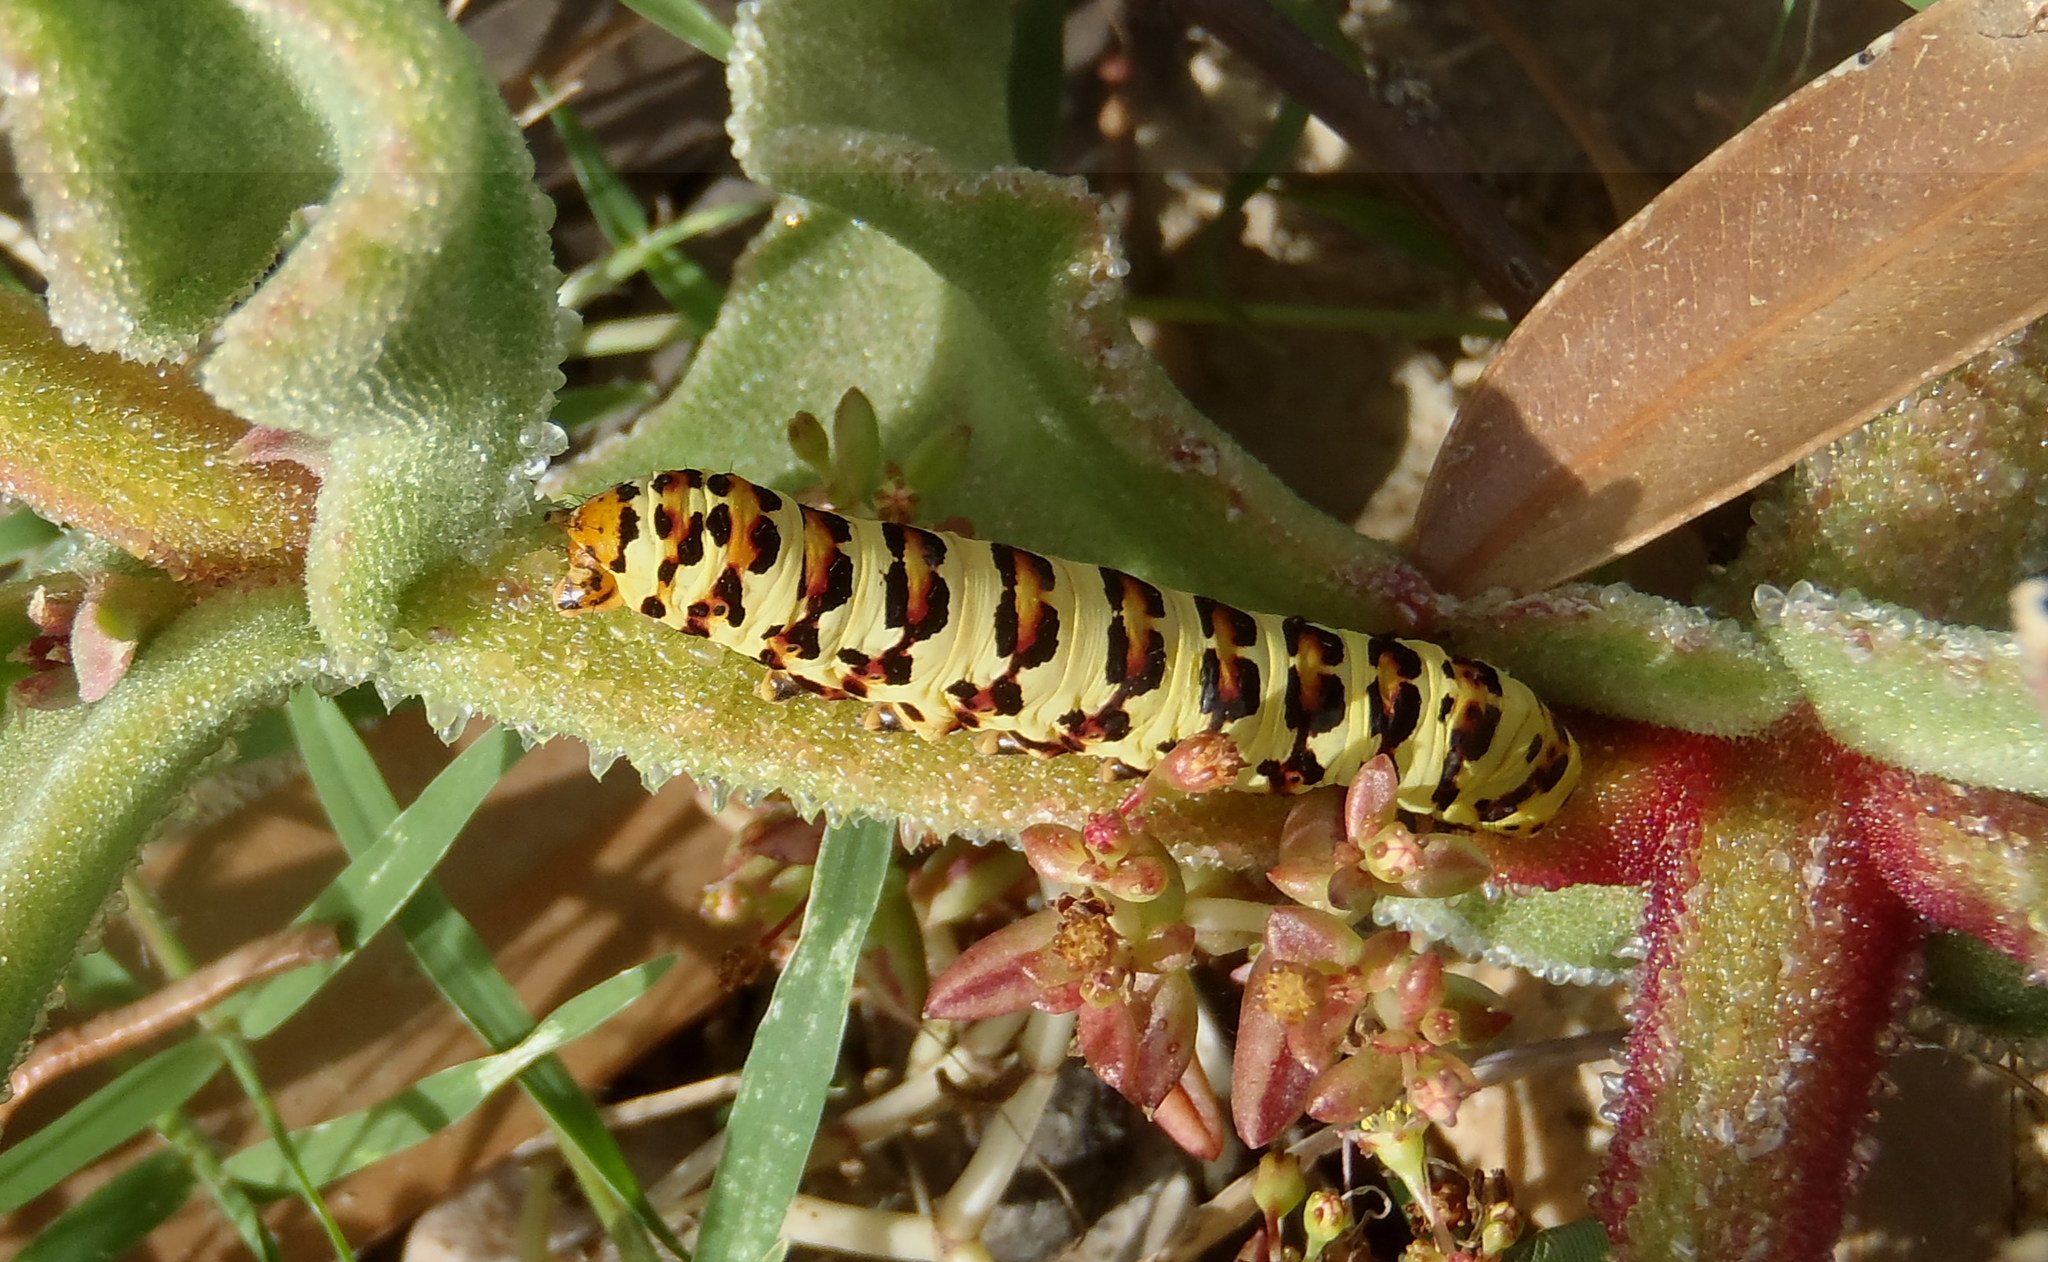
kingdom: Animalia
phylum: Arthropoda
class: Insecta
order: Lepidoptera
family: Noctuidae
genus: Diaphone
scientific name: Diaphone eumela
